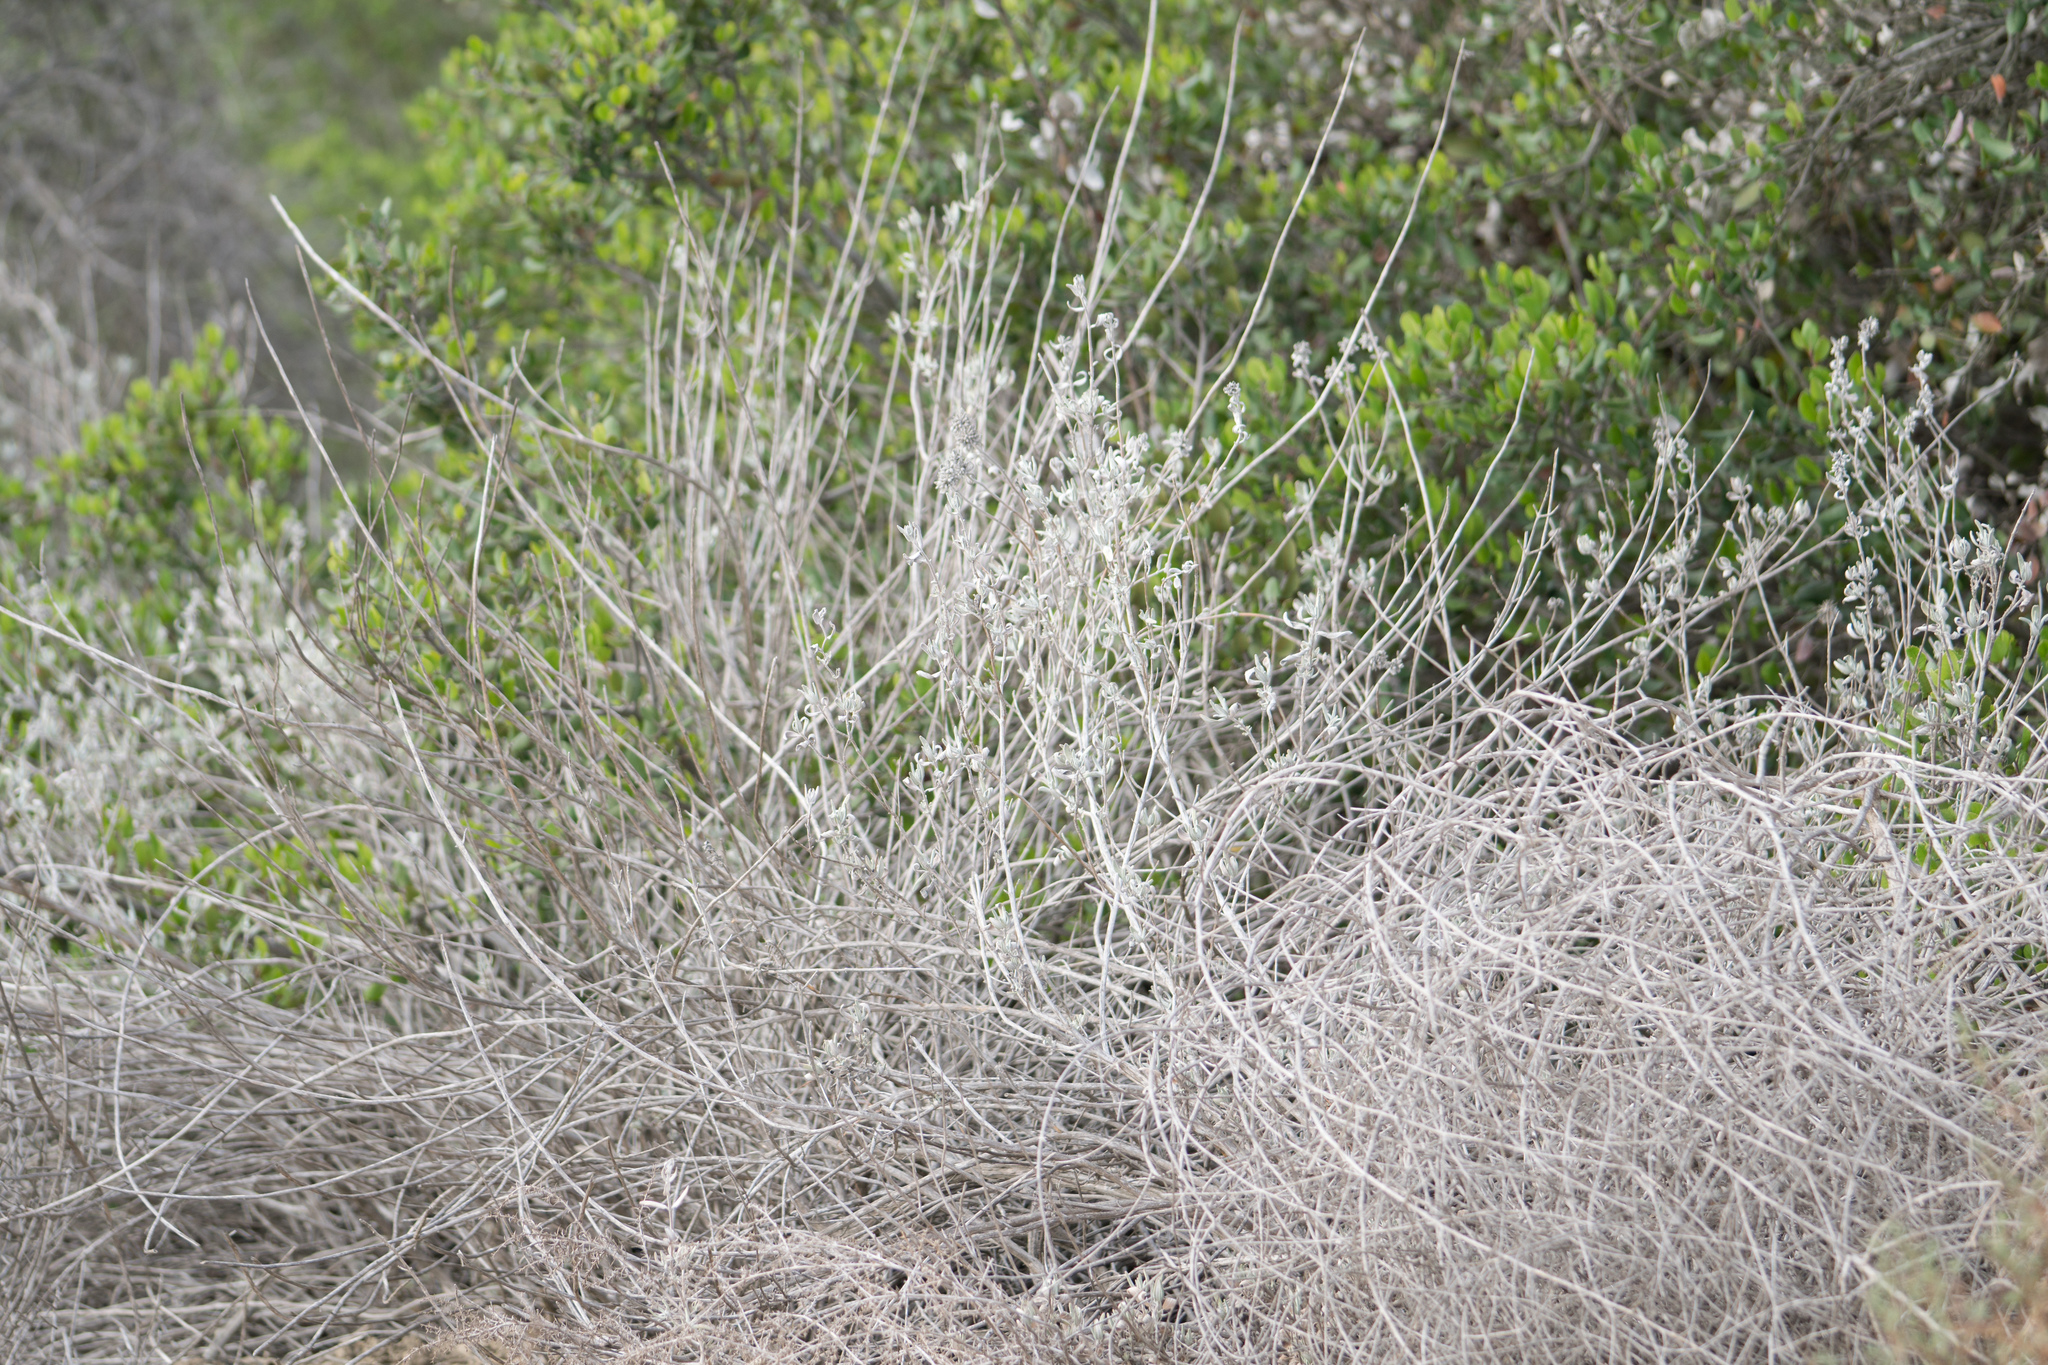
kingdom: Plantae
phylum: Tracheophyta
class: Magnoliopsida
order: Lamiales
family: Lamiaceae
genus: Salvia
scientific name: Salvia leucophylla
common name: Purple sage
